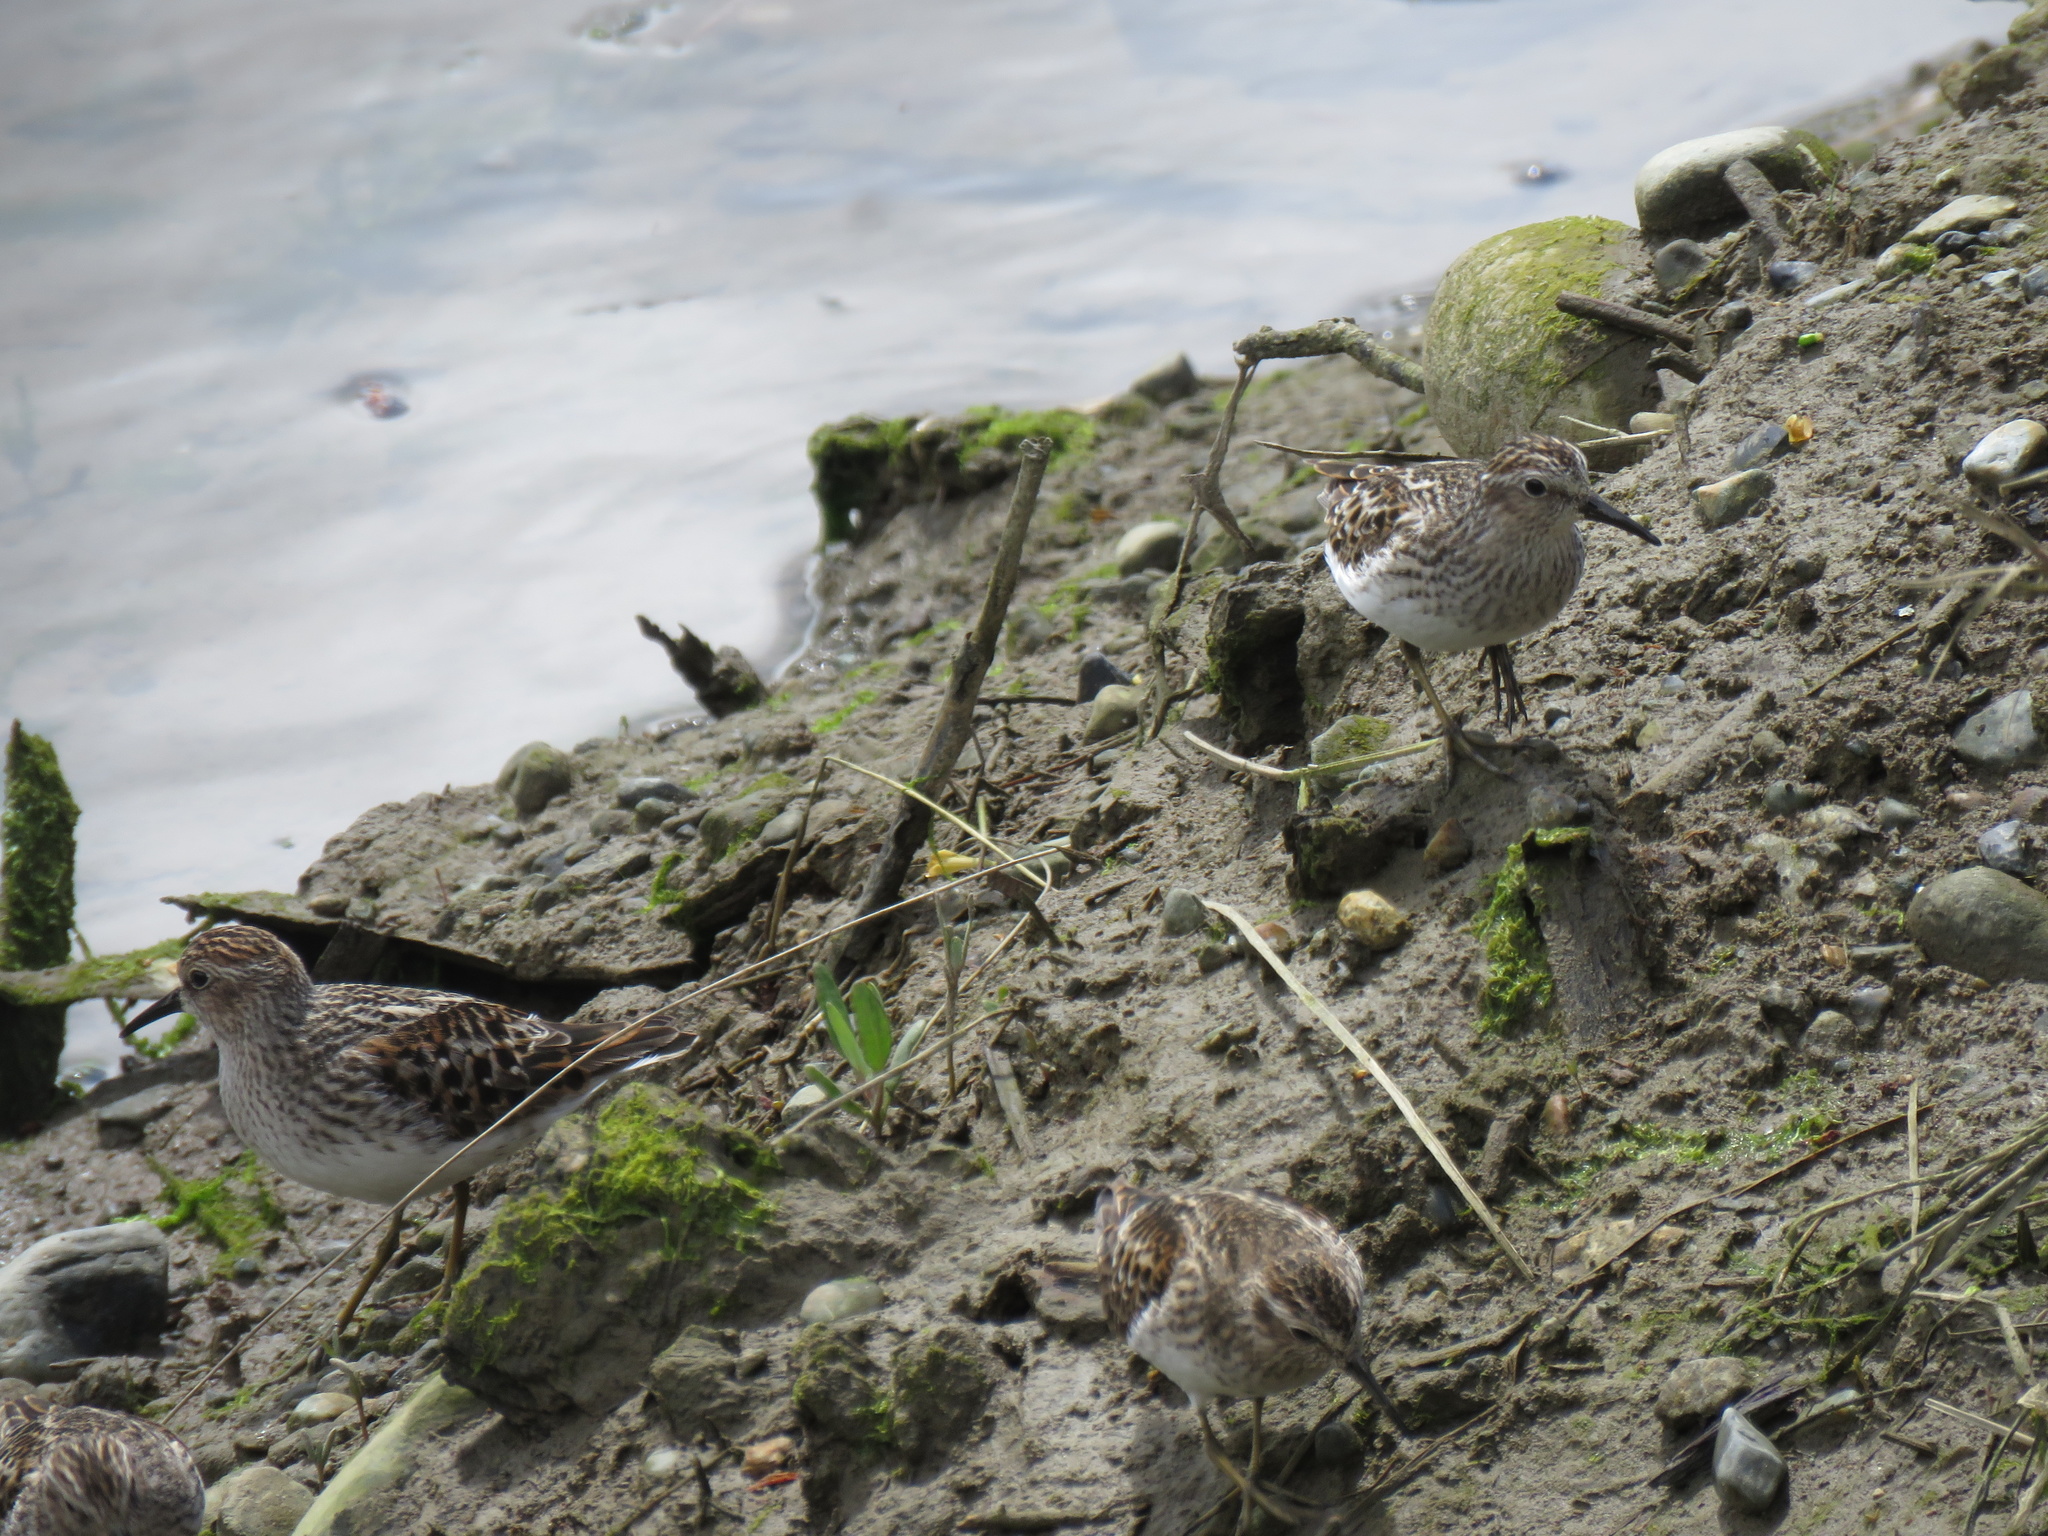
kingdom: Animalia
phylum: Chordata
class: Aves
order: Charadriiformes
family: Scolopacidae
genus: Calidris
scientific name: Calidris minutilla
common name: Least sandpiper
